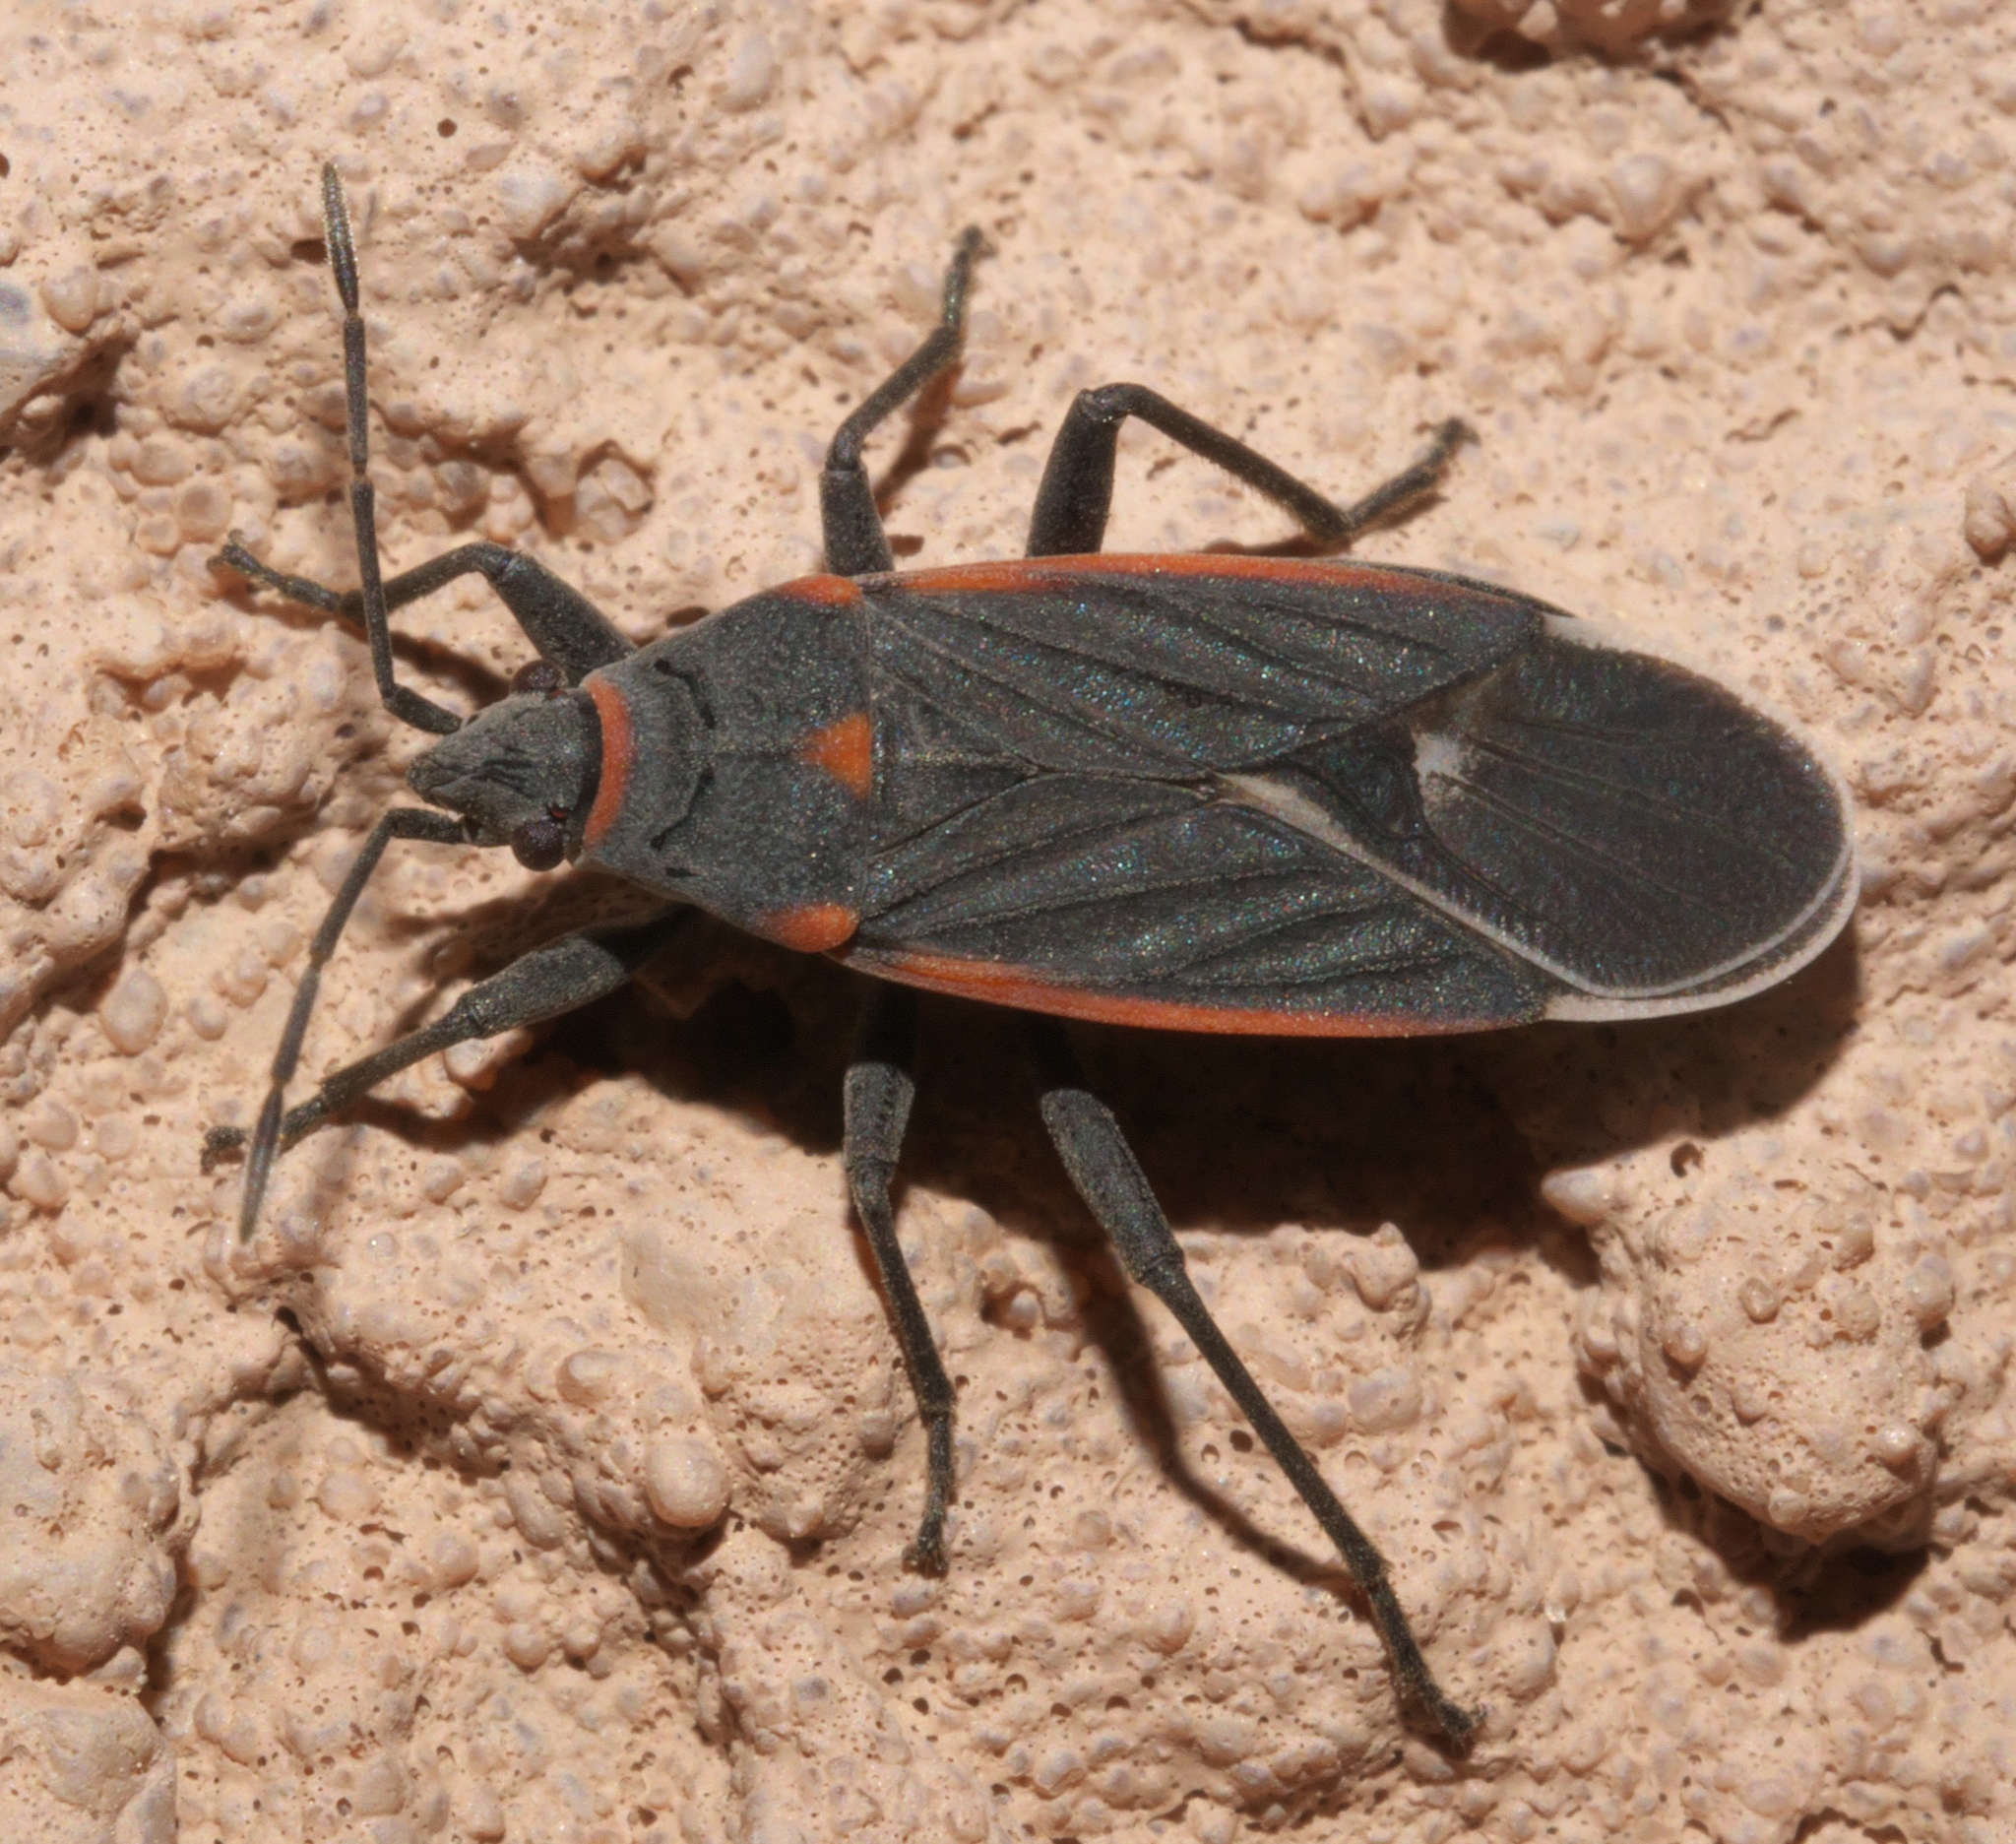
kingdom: Animalia
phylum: Arthropoda
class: Insecta
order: Hemiptera
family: Lygaeidae
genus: Melacoryphus
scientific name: Melacoryphus lateralis
